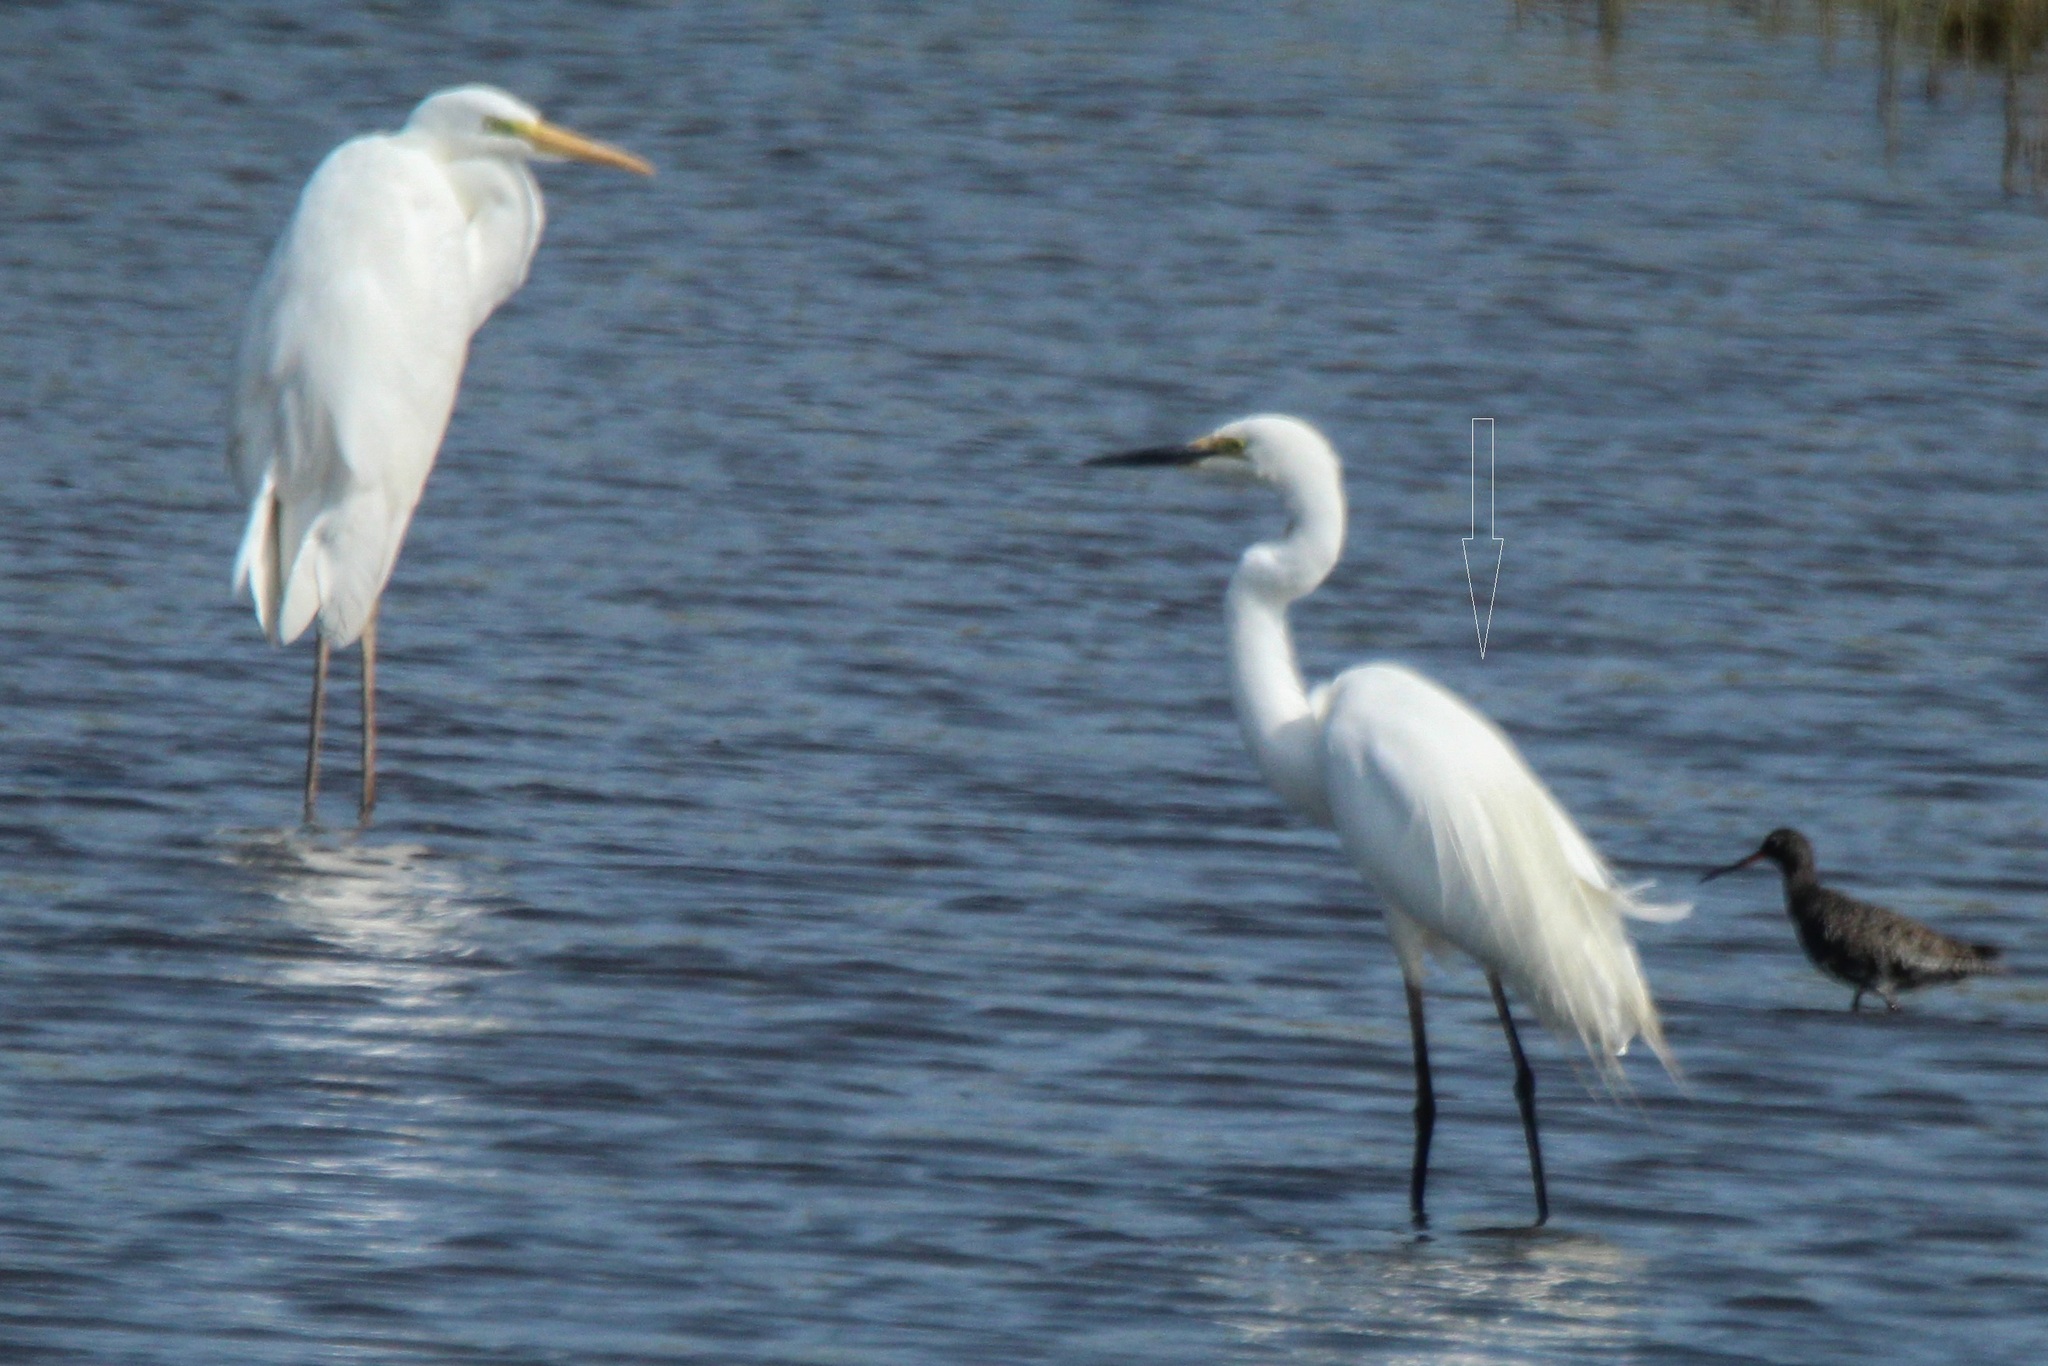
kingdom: Animalia
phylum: Chordata
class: Aves
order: Pelecaniformes
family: Ardeidae
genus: Ardea
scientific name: Ardea modesta
